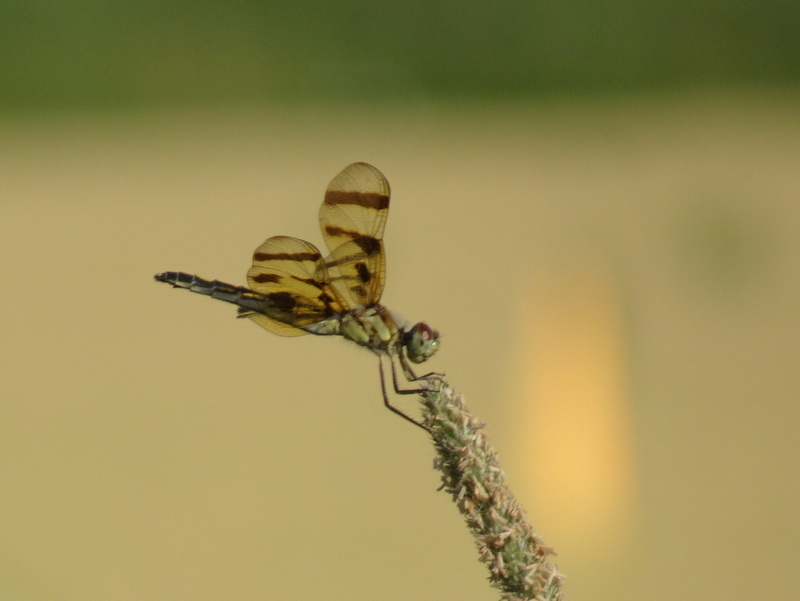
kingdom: Animalia
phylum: Arthropoda
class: Insecta
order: Odonata
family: Libellulidae
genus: Celithemis
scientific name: Celithemis eponina
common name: Halloween pennant
